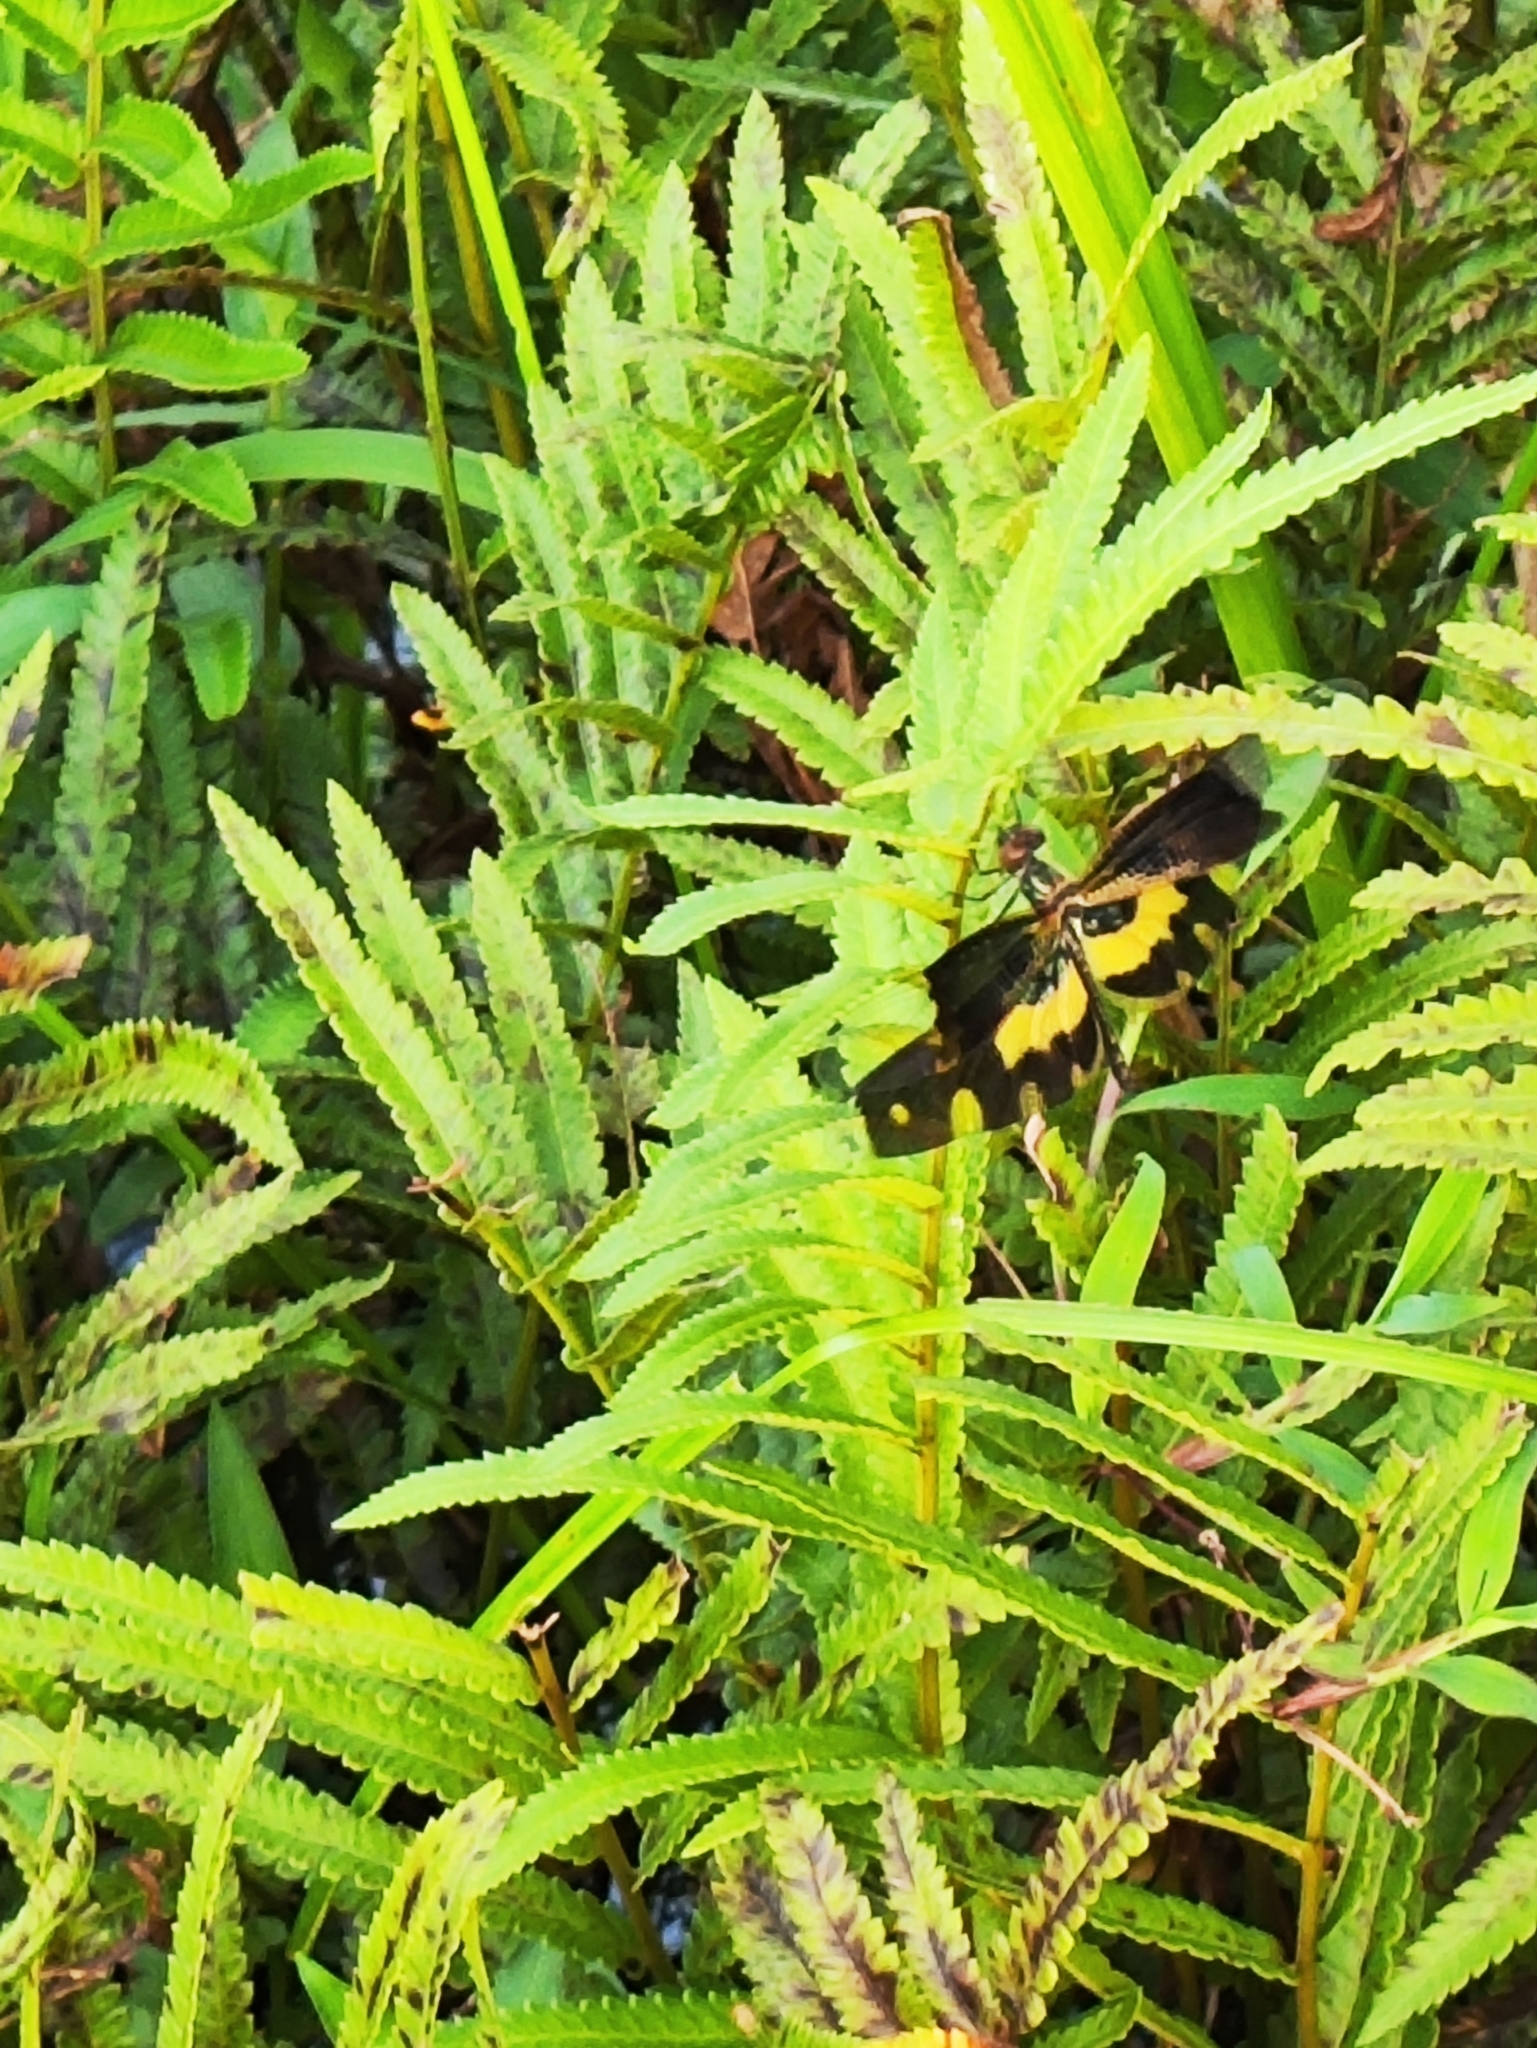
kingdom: Animalia
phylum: Arthropoda
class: Insecta
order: Odonata
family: Libellulidae
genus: Rhyothemis
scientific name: Rhyothemis variegata
